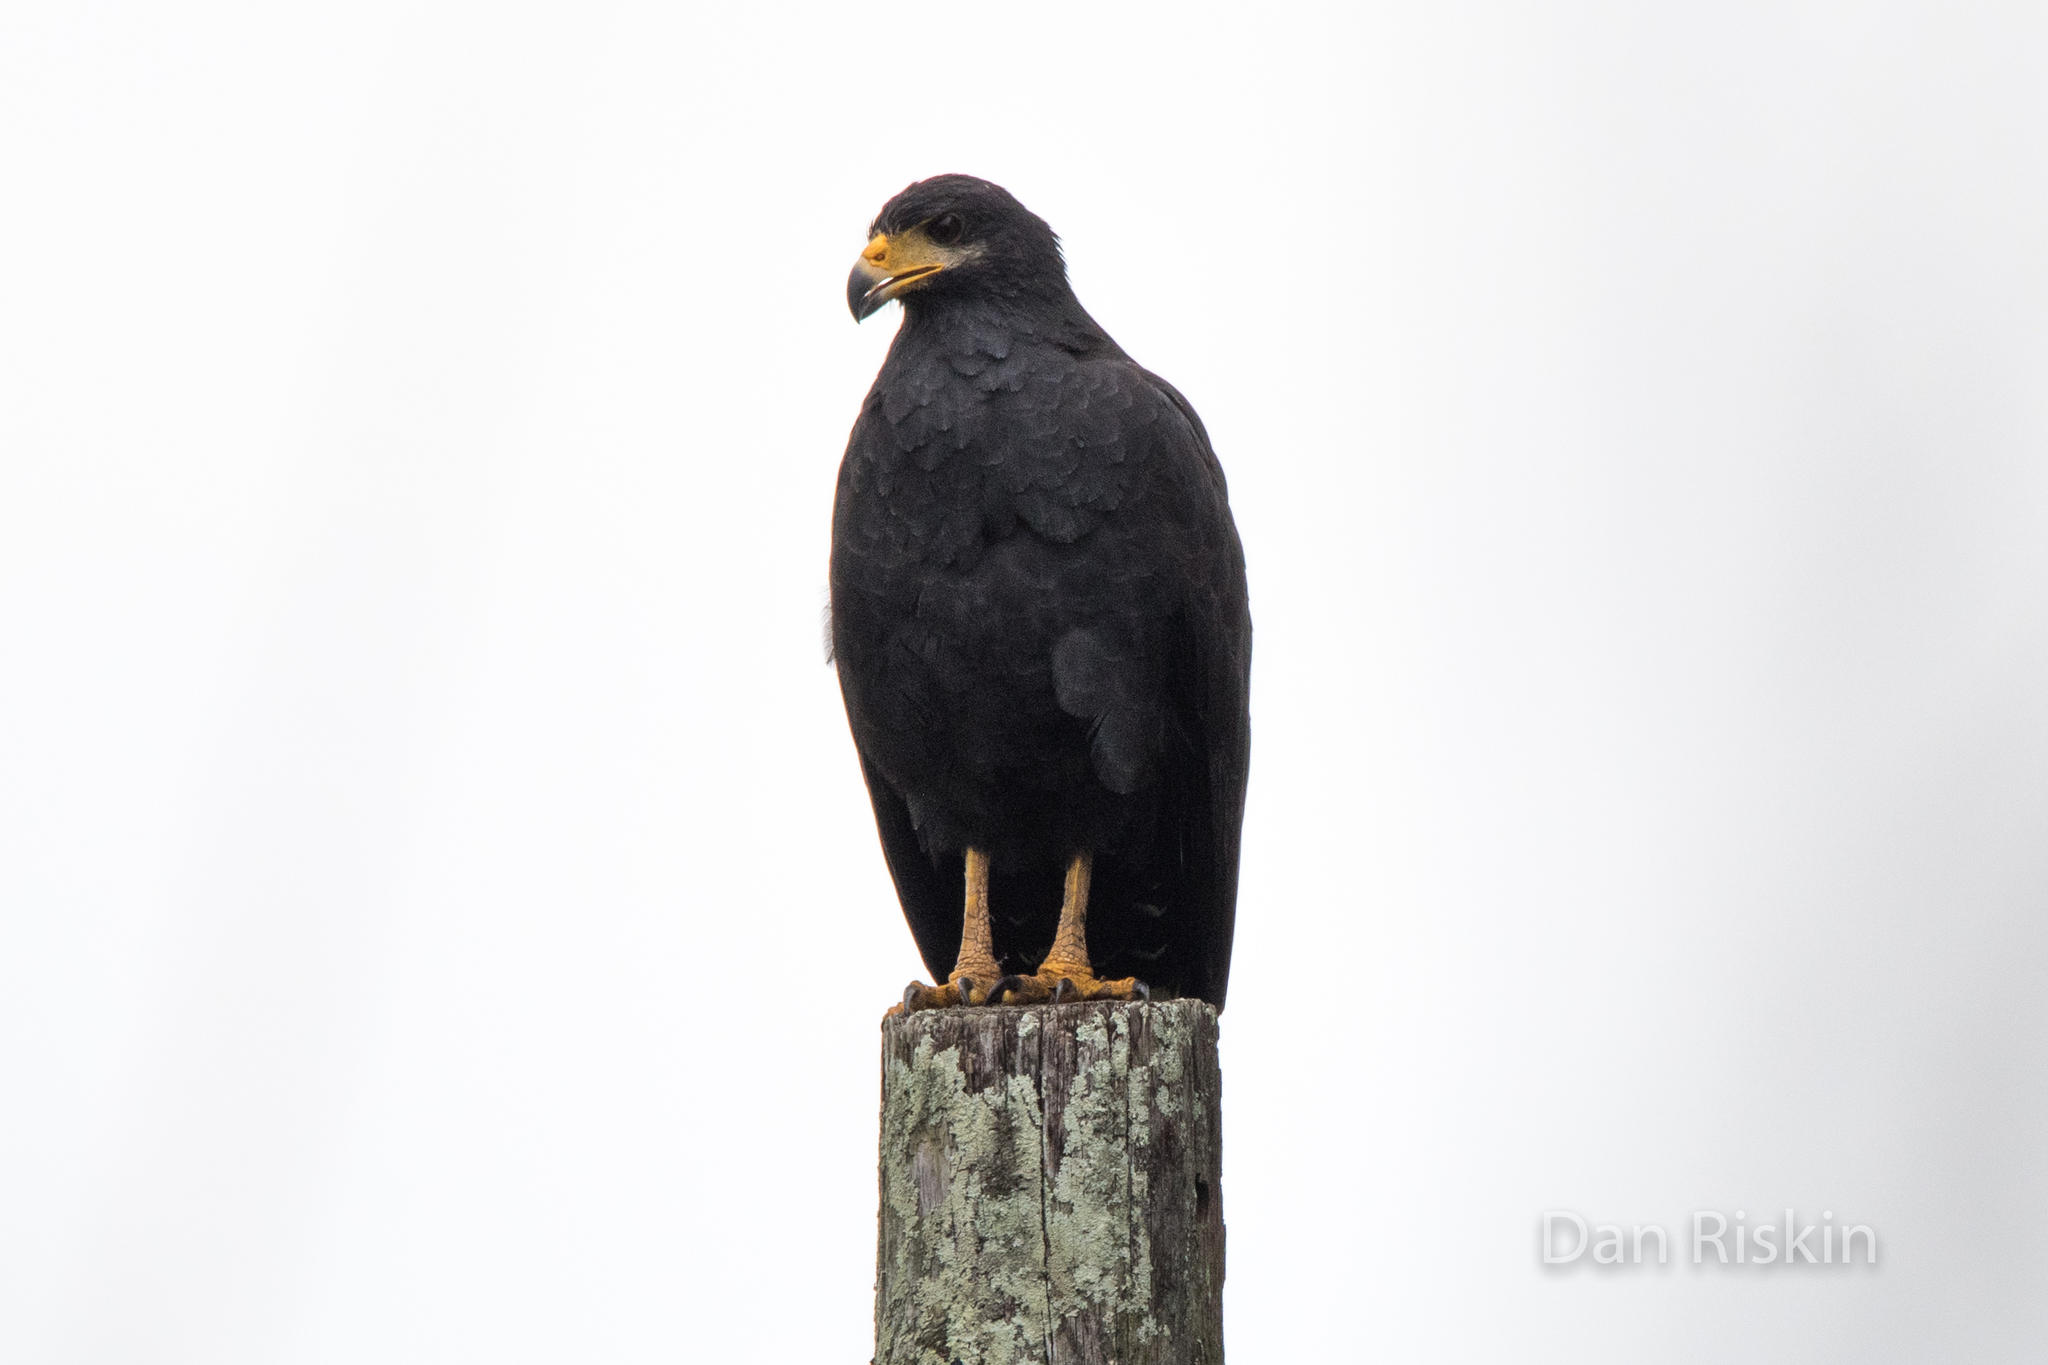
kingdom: Animalia
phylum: Chordata
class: Aves
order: Accipitriformes
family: Accipitridae
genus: Buteogallus
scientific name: Buteogallus anthracinus
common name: Common black hawk
